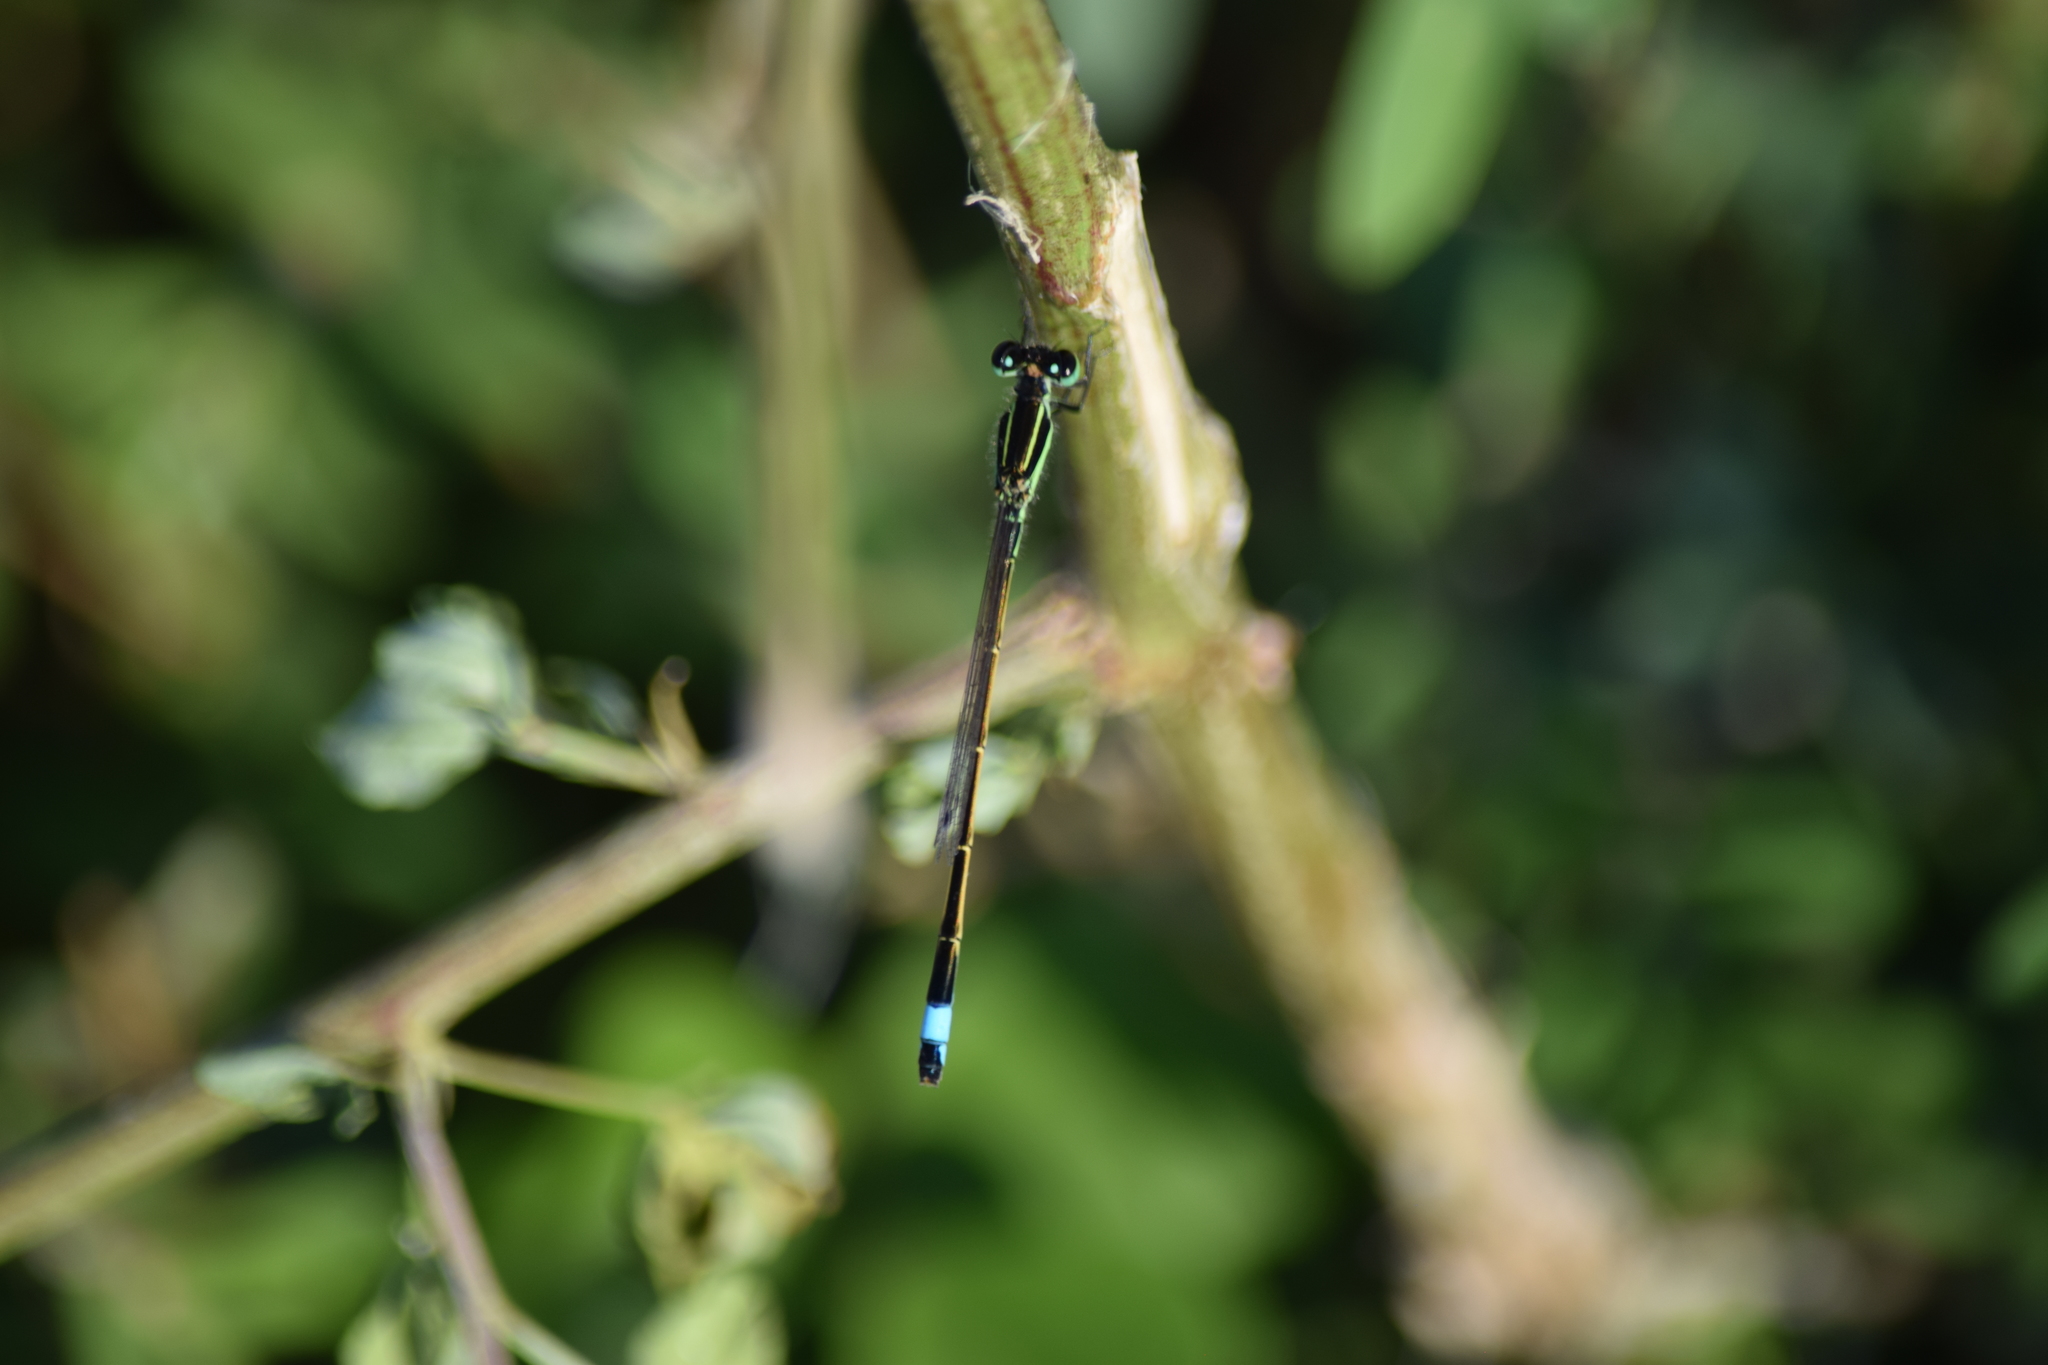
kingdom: Animalia
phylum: Arthropoda
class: Insecta
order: Odonata
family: Coenagrionidae
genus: Ischnura
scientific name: Ischnura ramburii
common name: Rambur's forktail
